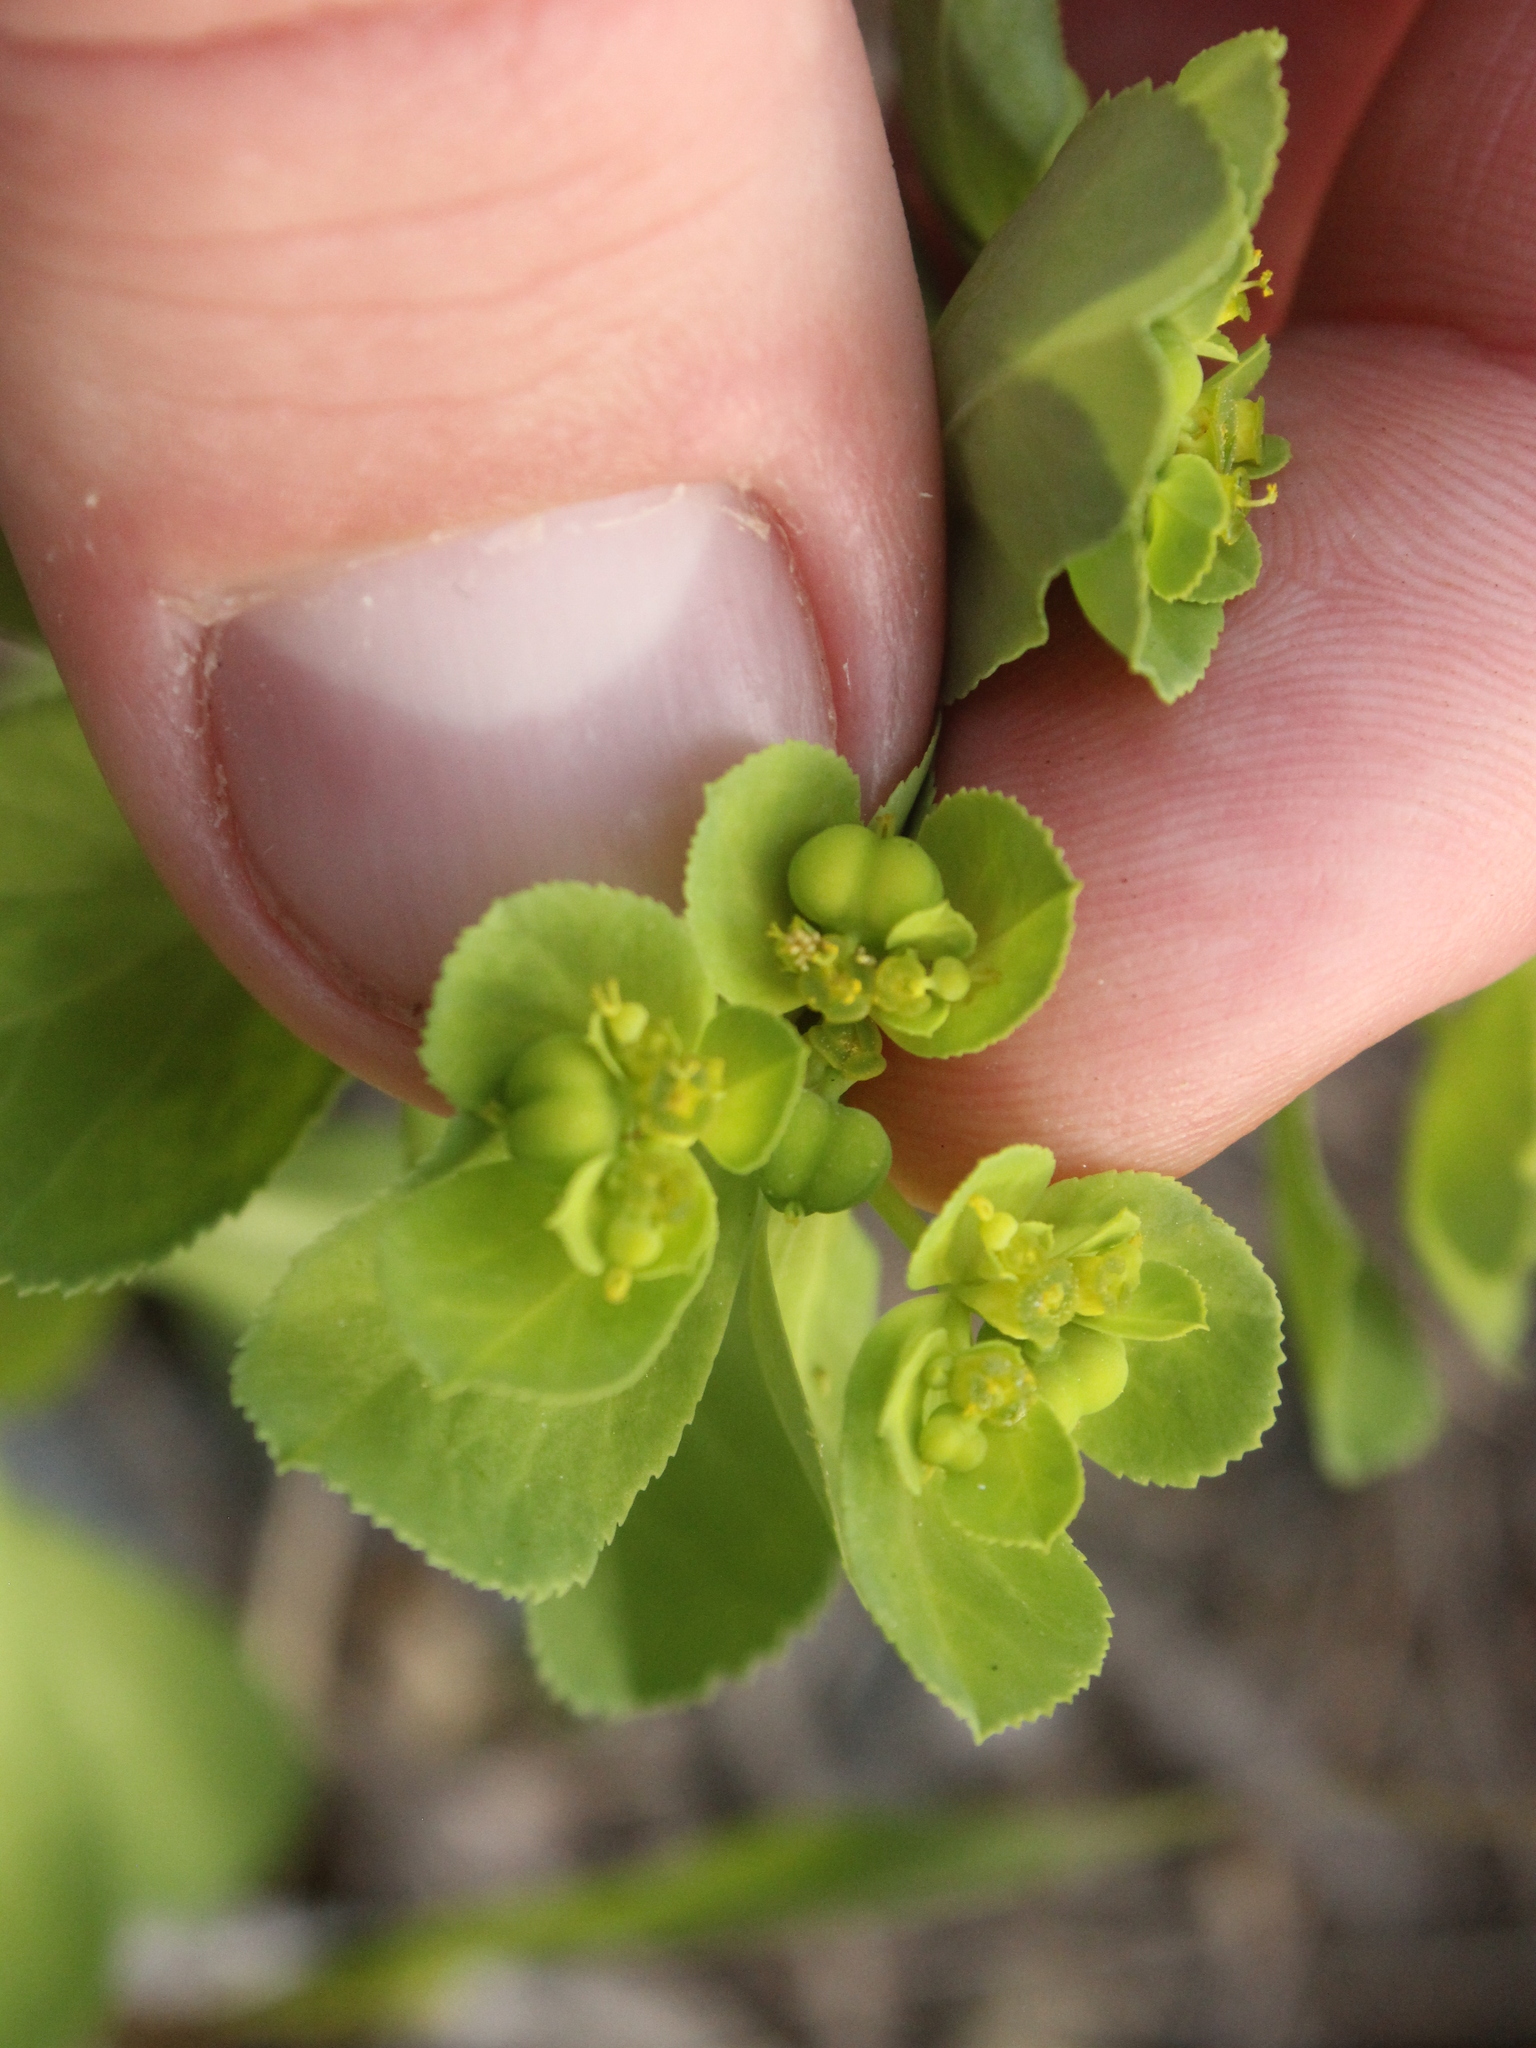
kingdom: Plantae
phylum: Tracheophyta
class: Magnoliopsida
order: Malpighiales
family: Euphorbiaceae
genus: Euphorbia
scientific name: Euphorbia helioscopia
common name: Sun spurge
